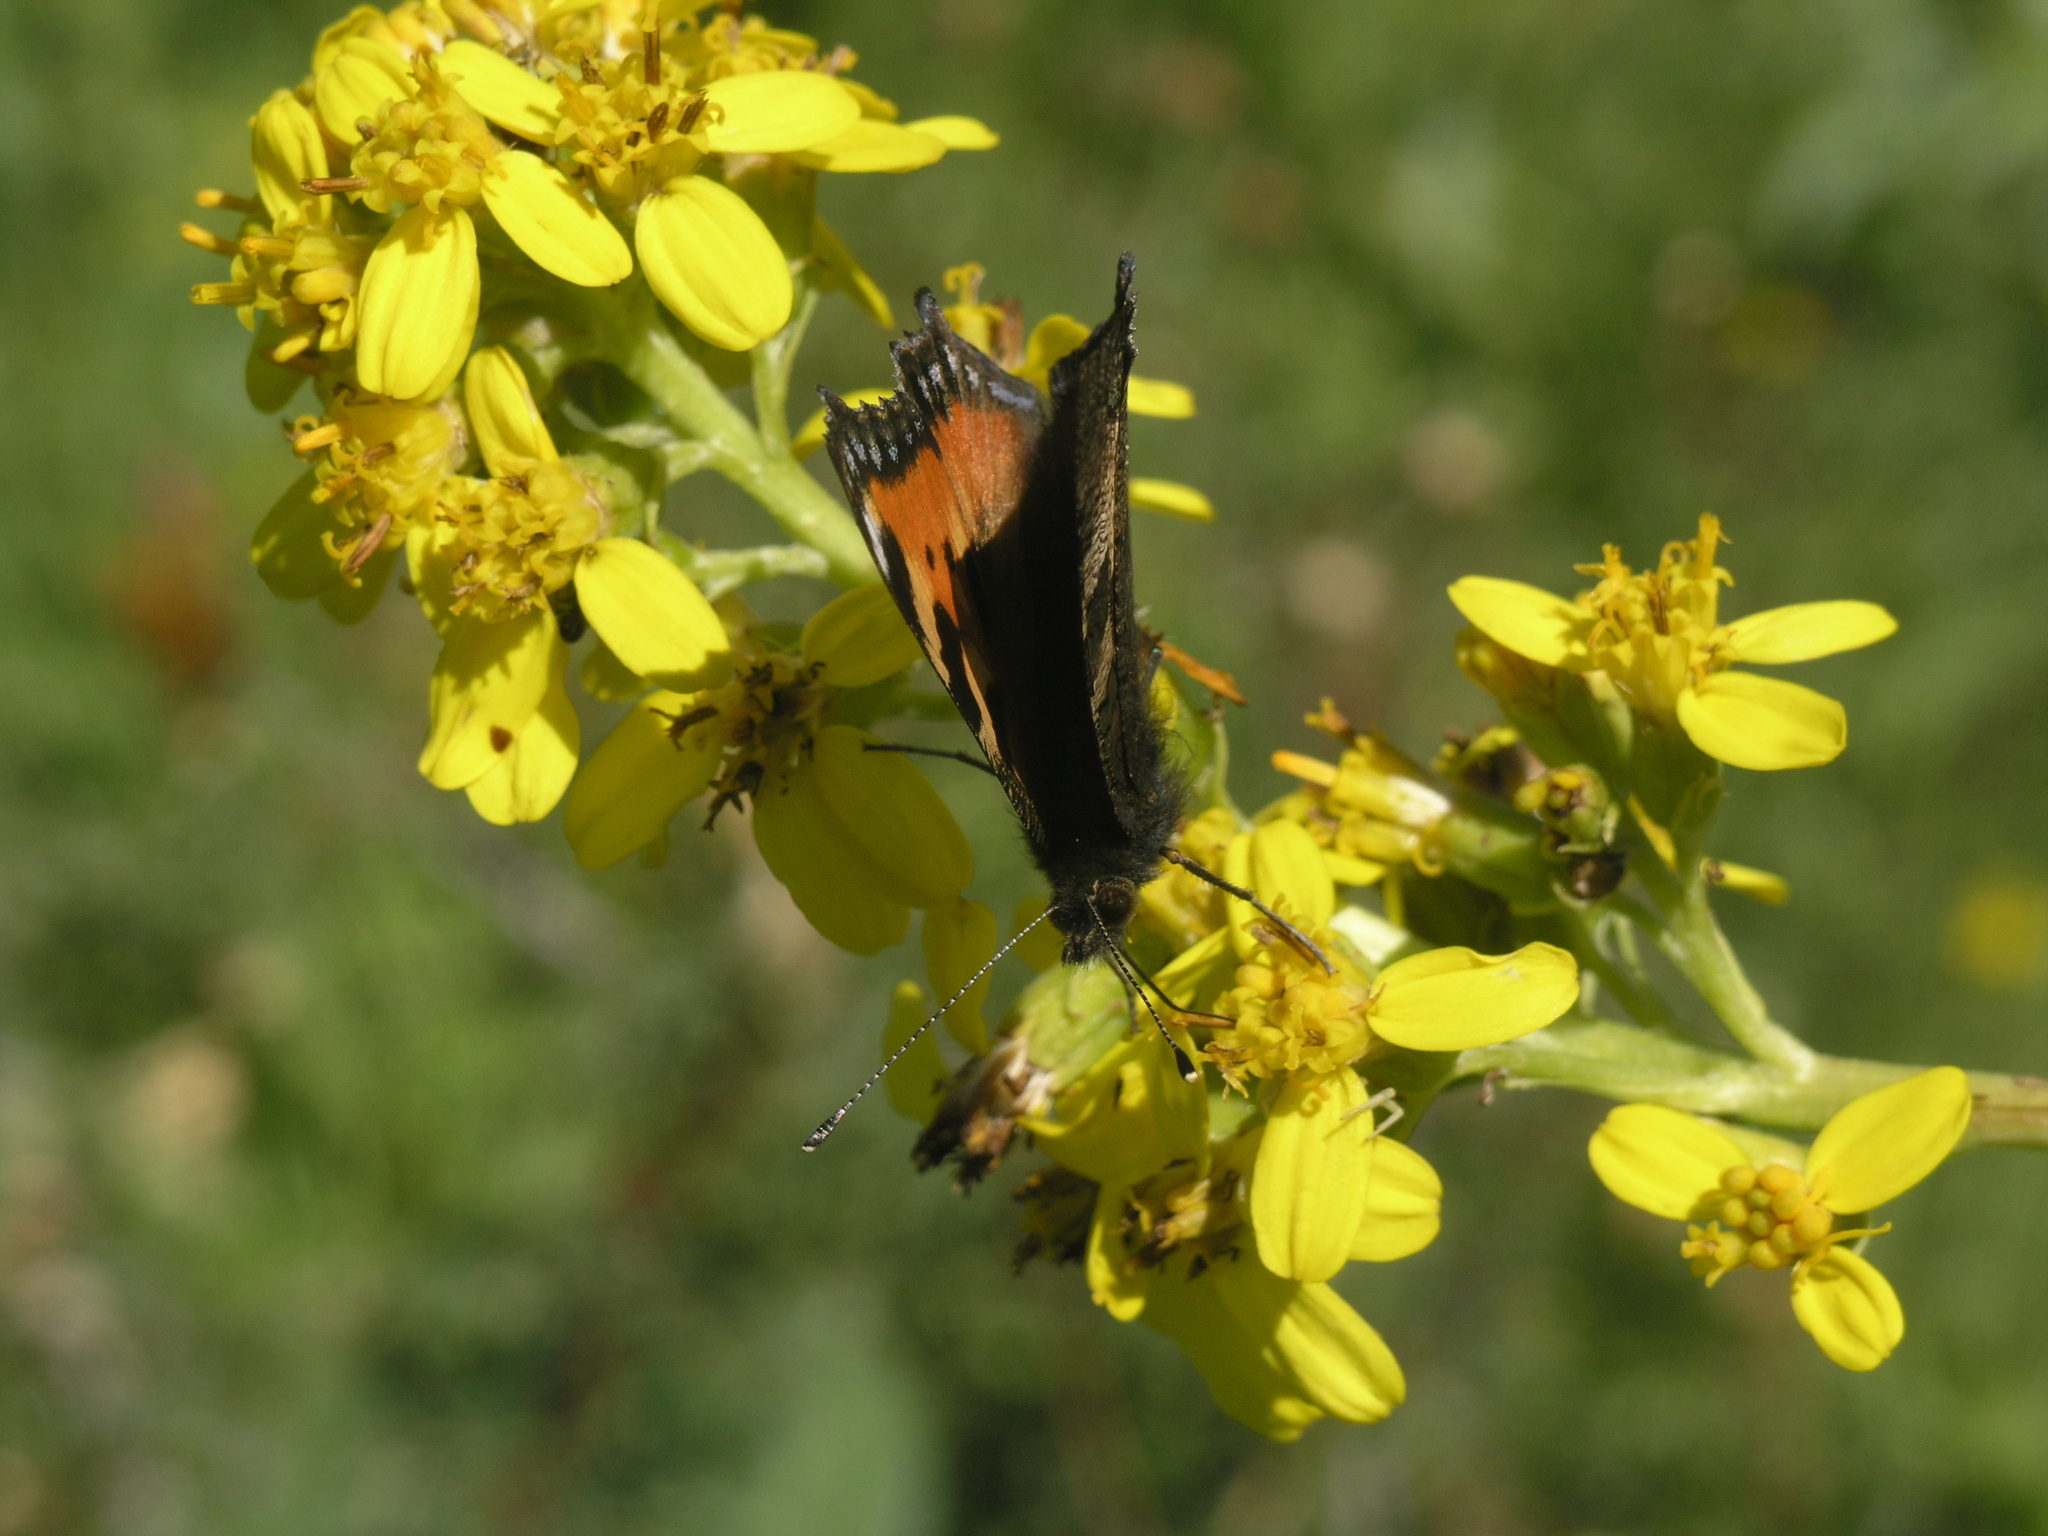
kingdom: Plantae
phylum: Tracheophyta
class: Magnoliopsida
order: Asterales
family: Asteraceae
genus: Ligularia
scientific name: Ligularia heterophylla
